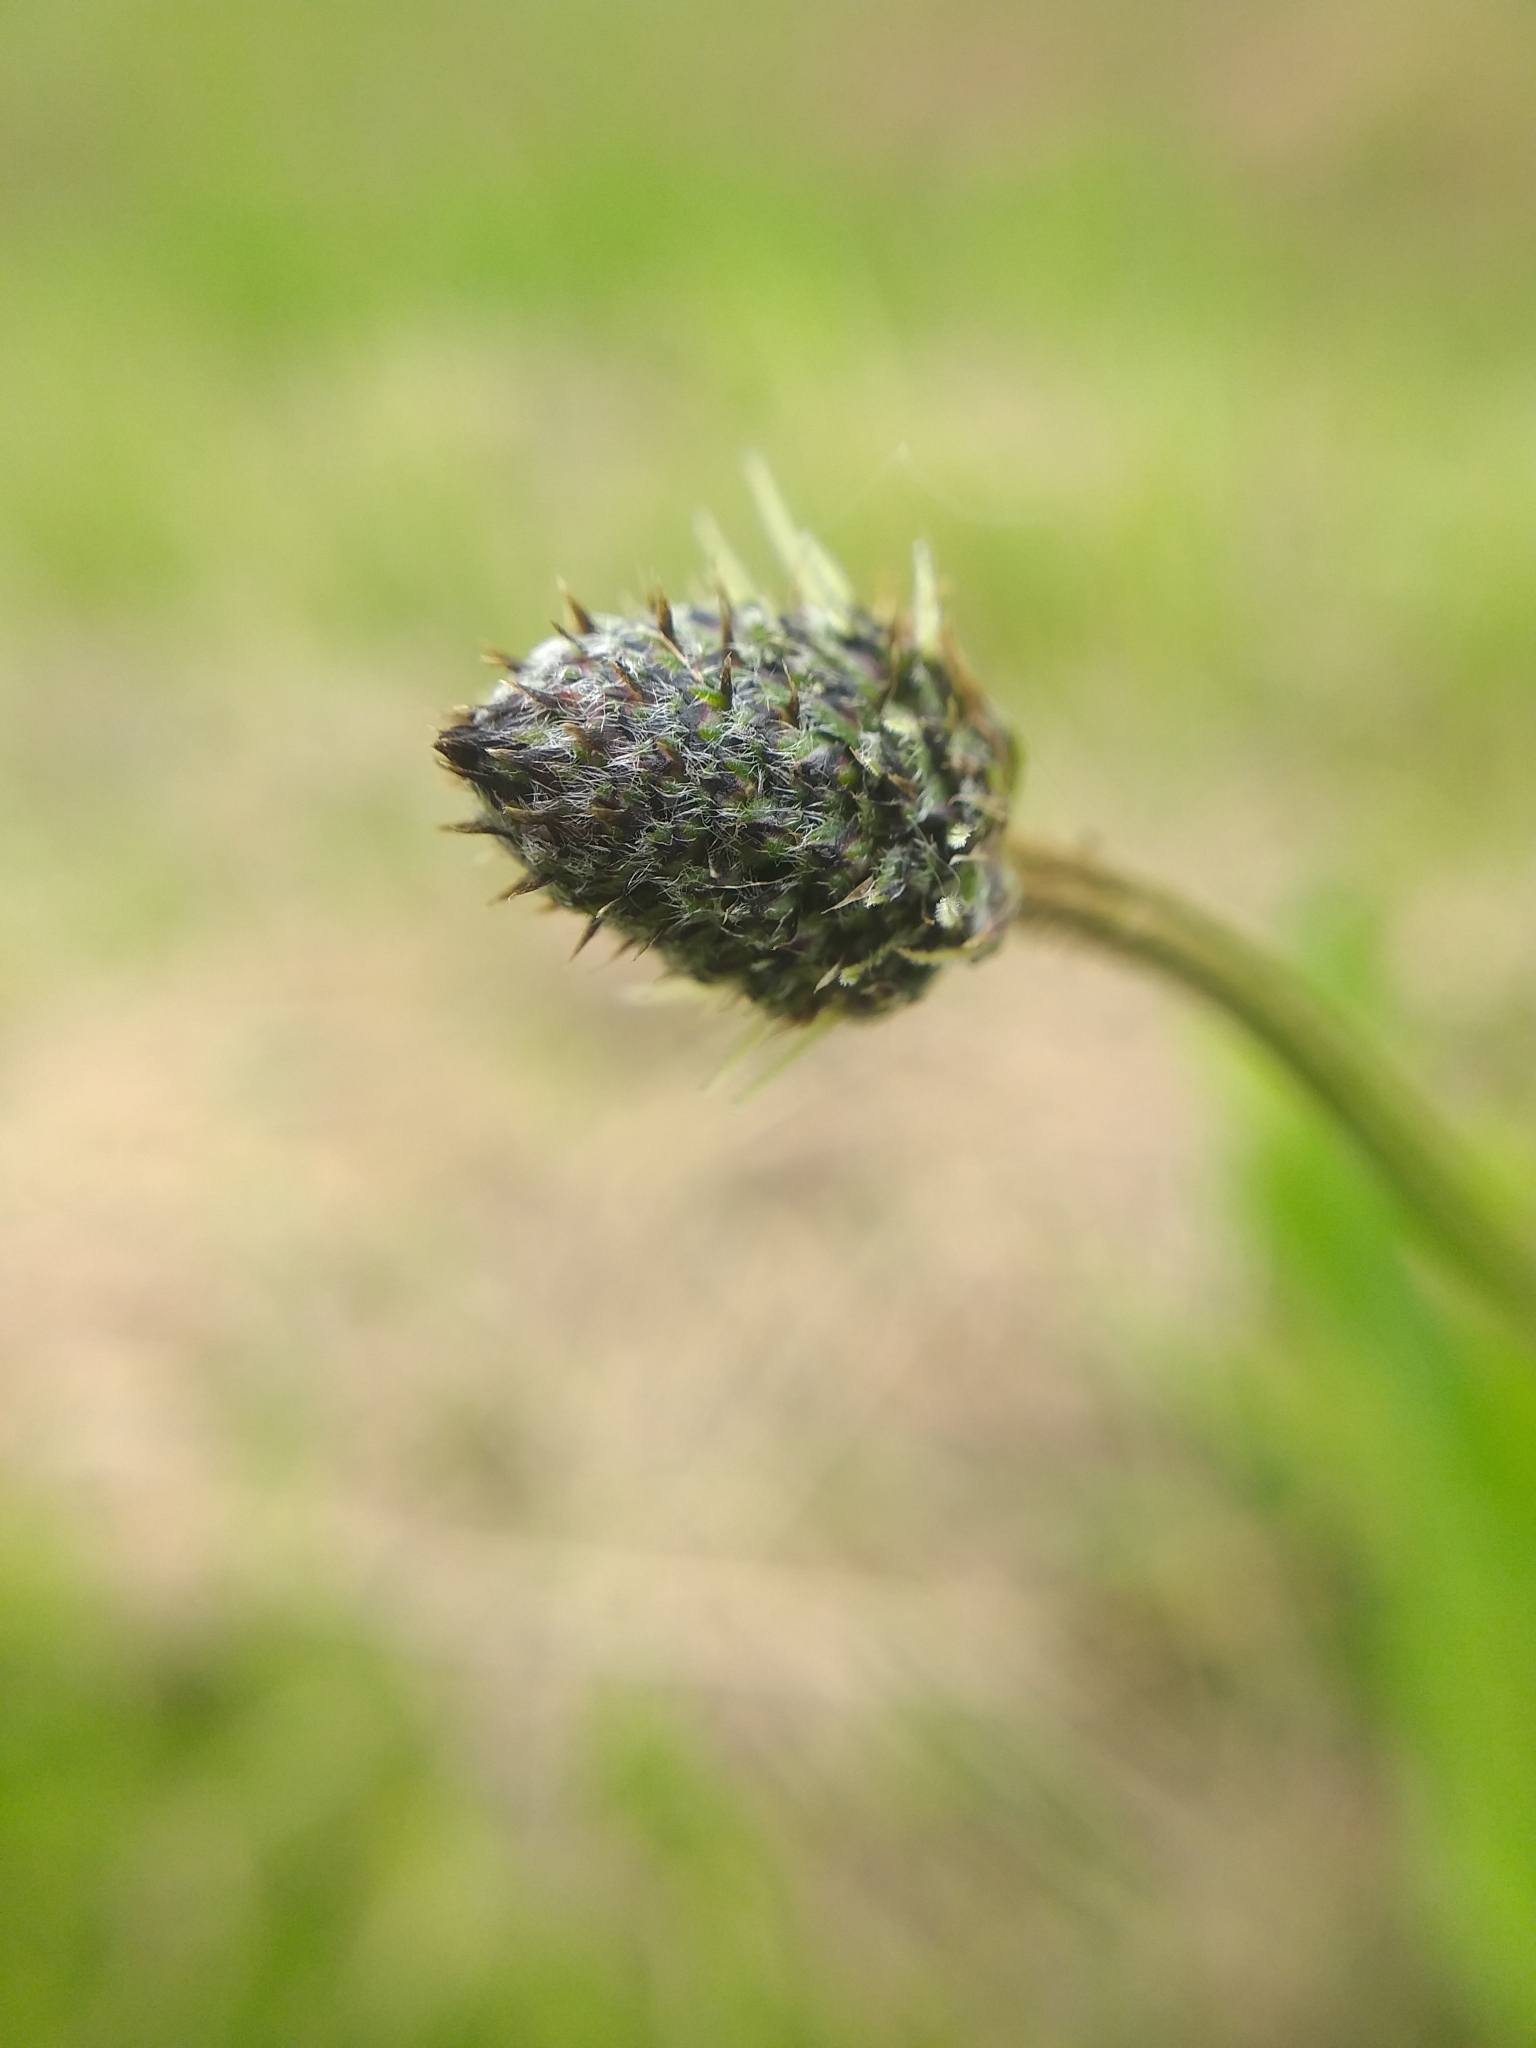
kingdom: Plantae
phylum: Tracheophyta
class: Magnoliopsida
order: Lamiales
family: Plantaginaceae
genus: Plantago
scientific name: Plantago lanceolata
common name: Ribwort plantain
